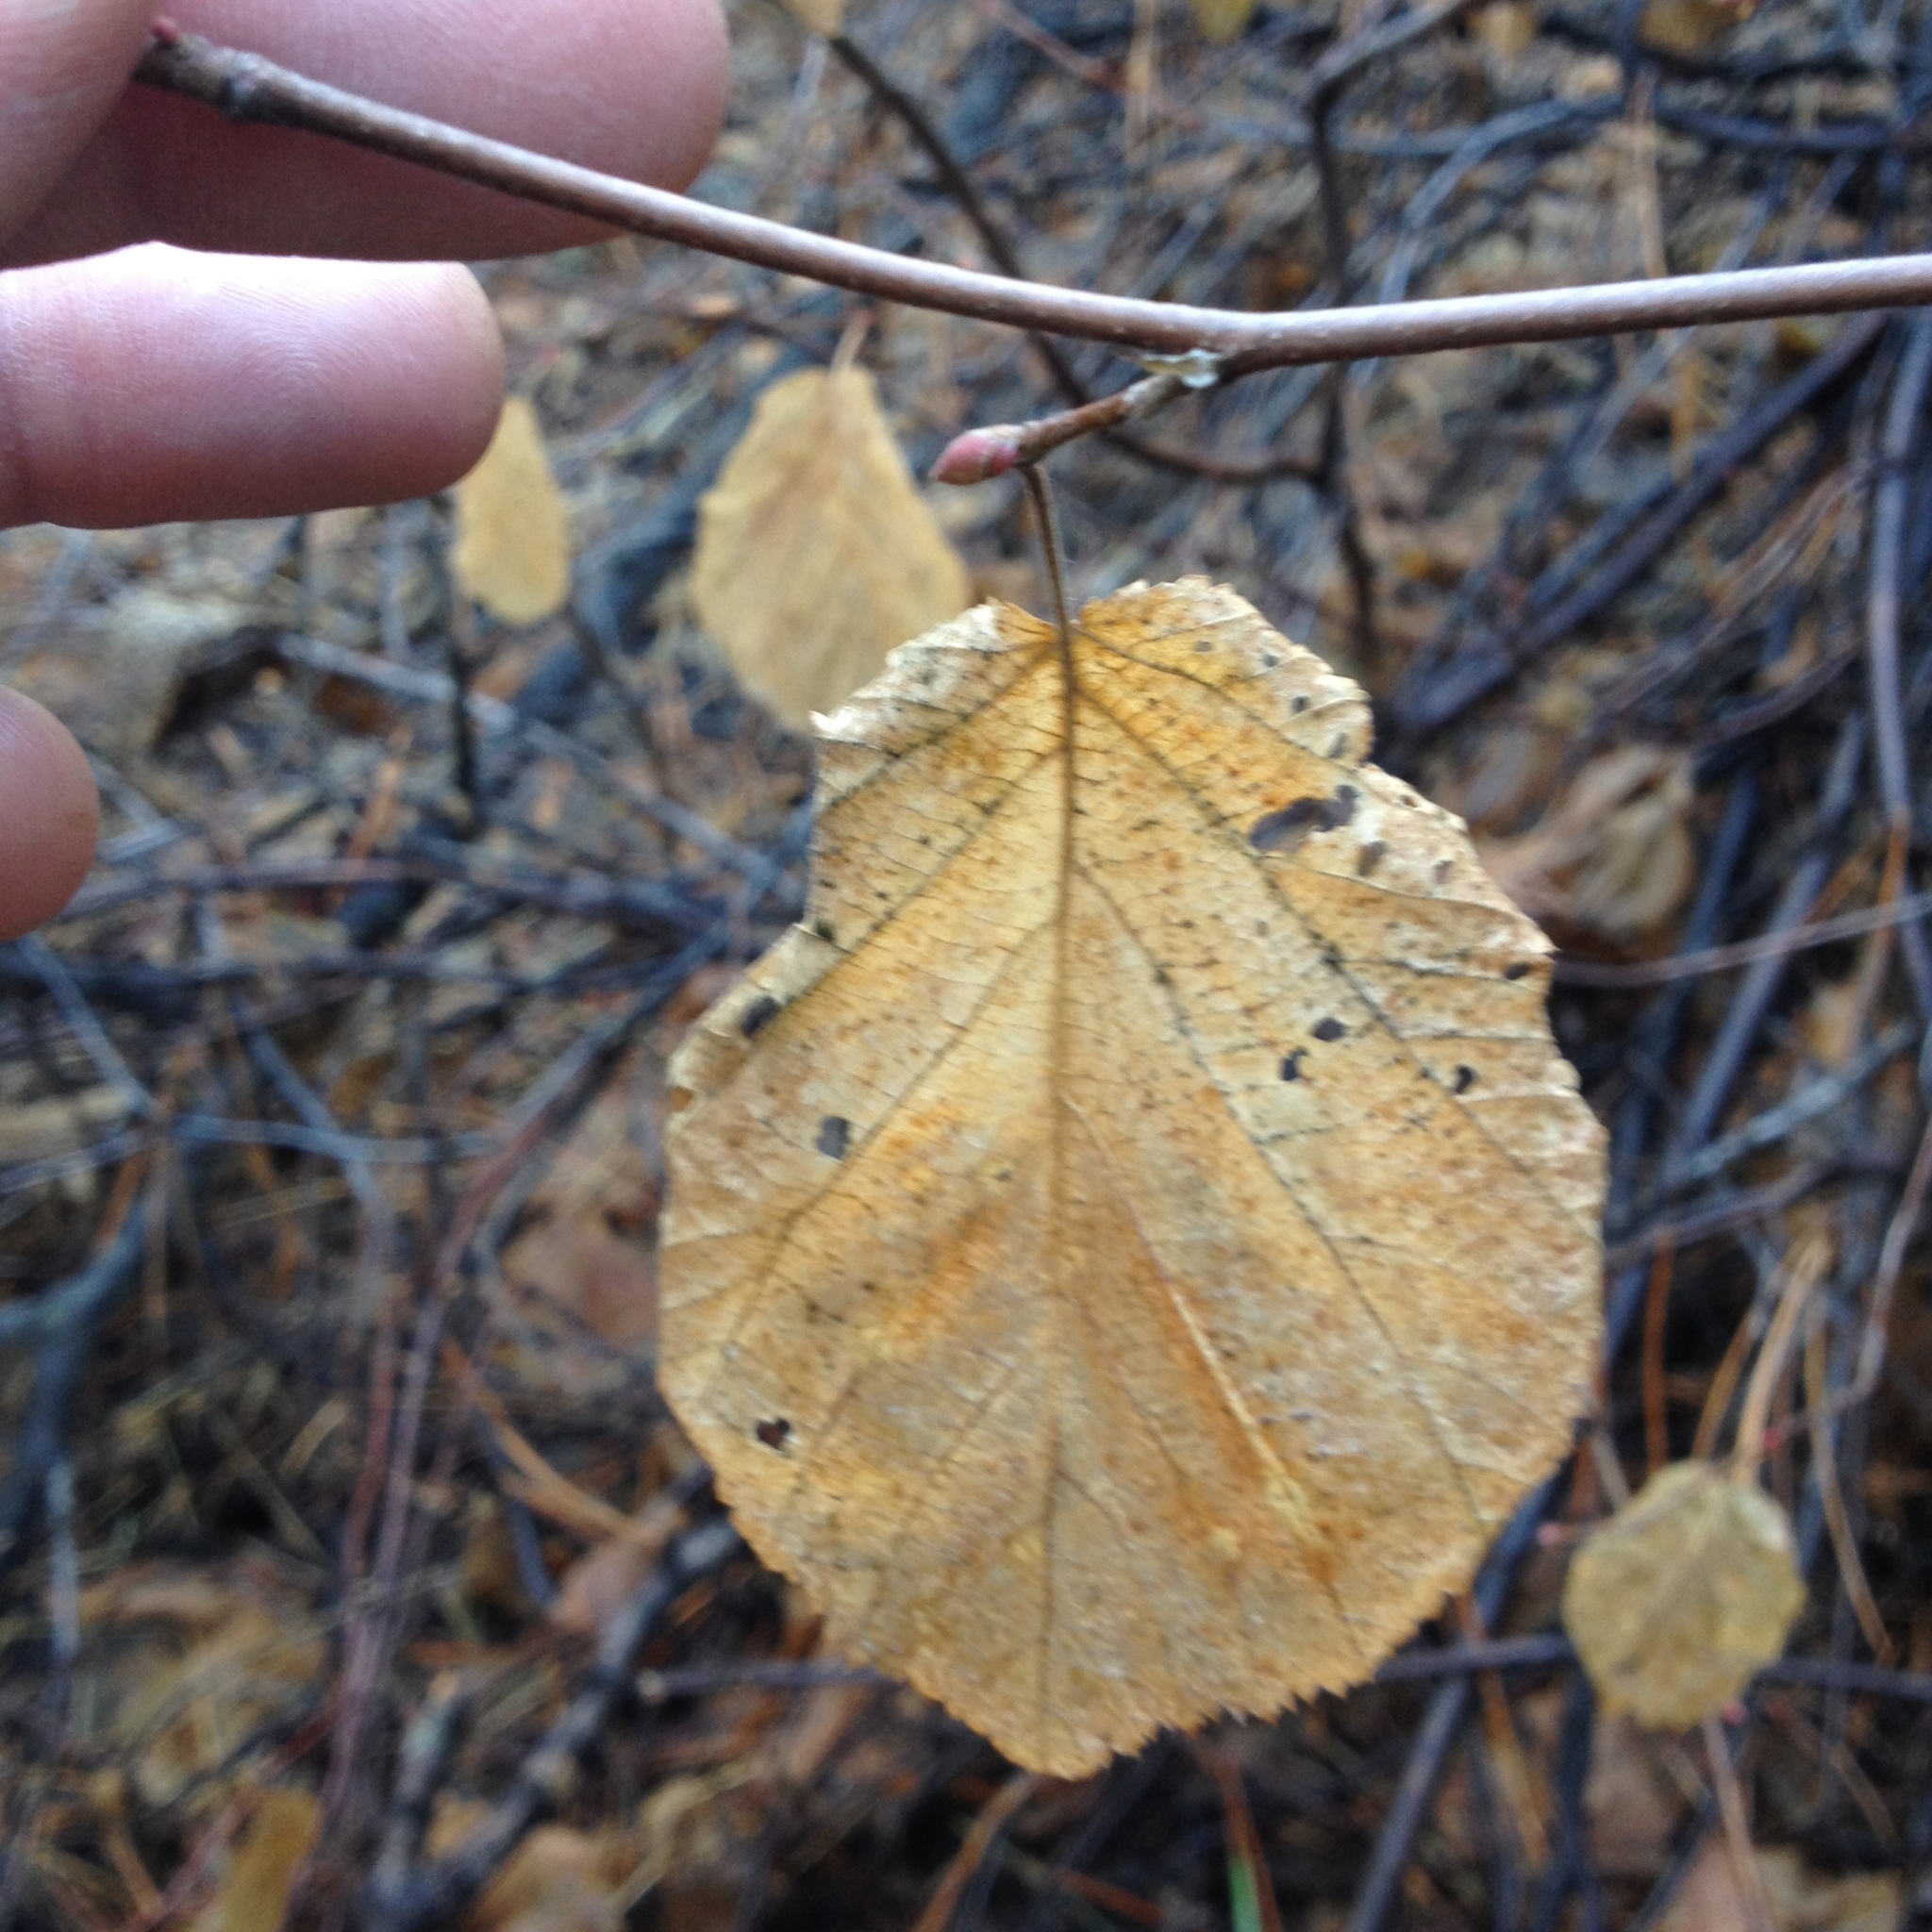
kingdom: Plantae
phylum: Tracheophyta
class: Magnoliopsida
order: Fagales
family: Betulaceae
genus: Corylus
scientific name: Corylus cornuta
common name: Beaked hazel
